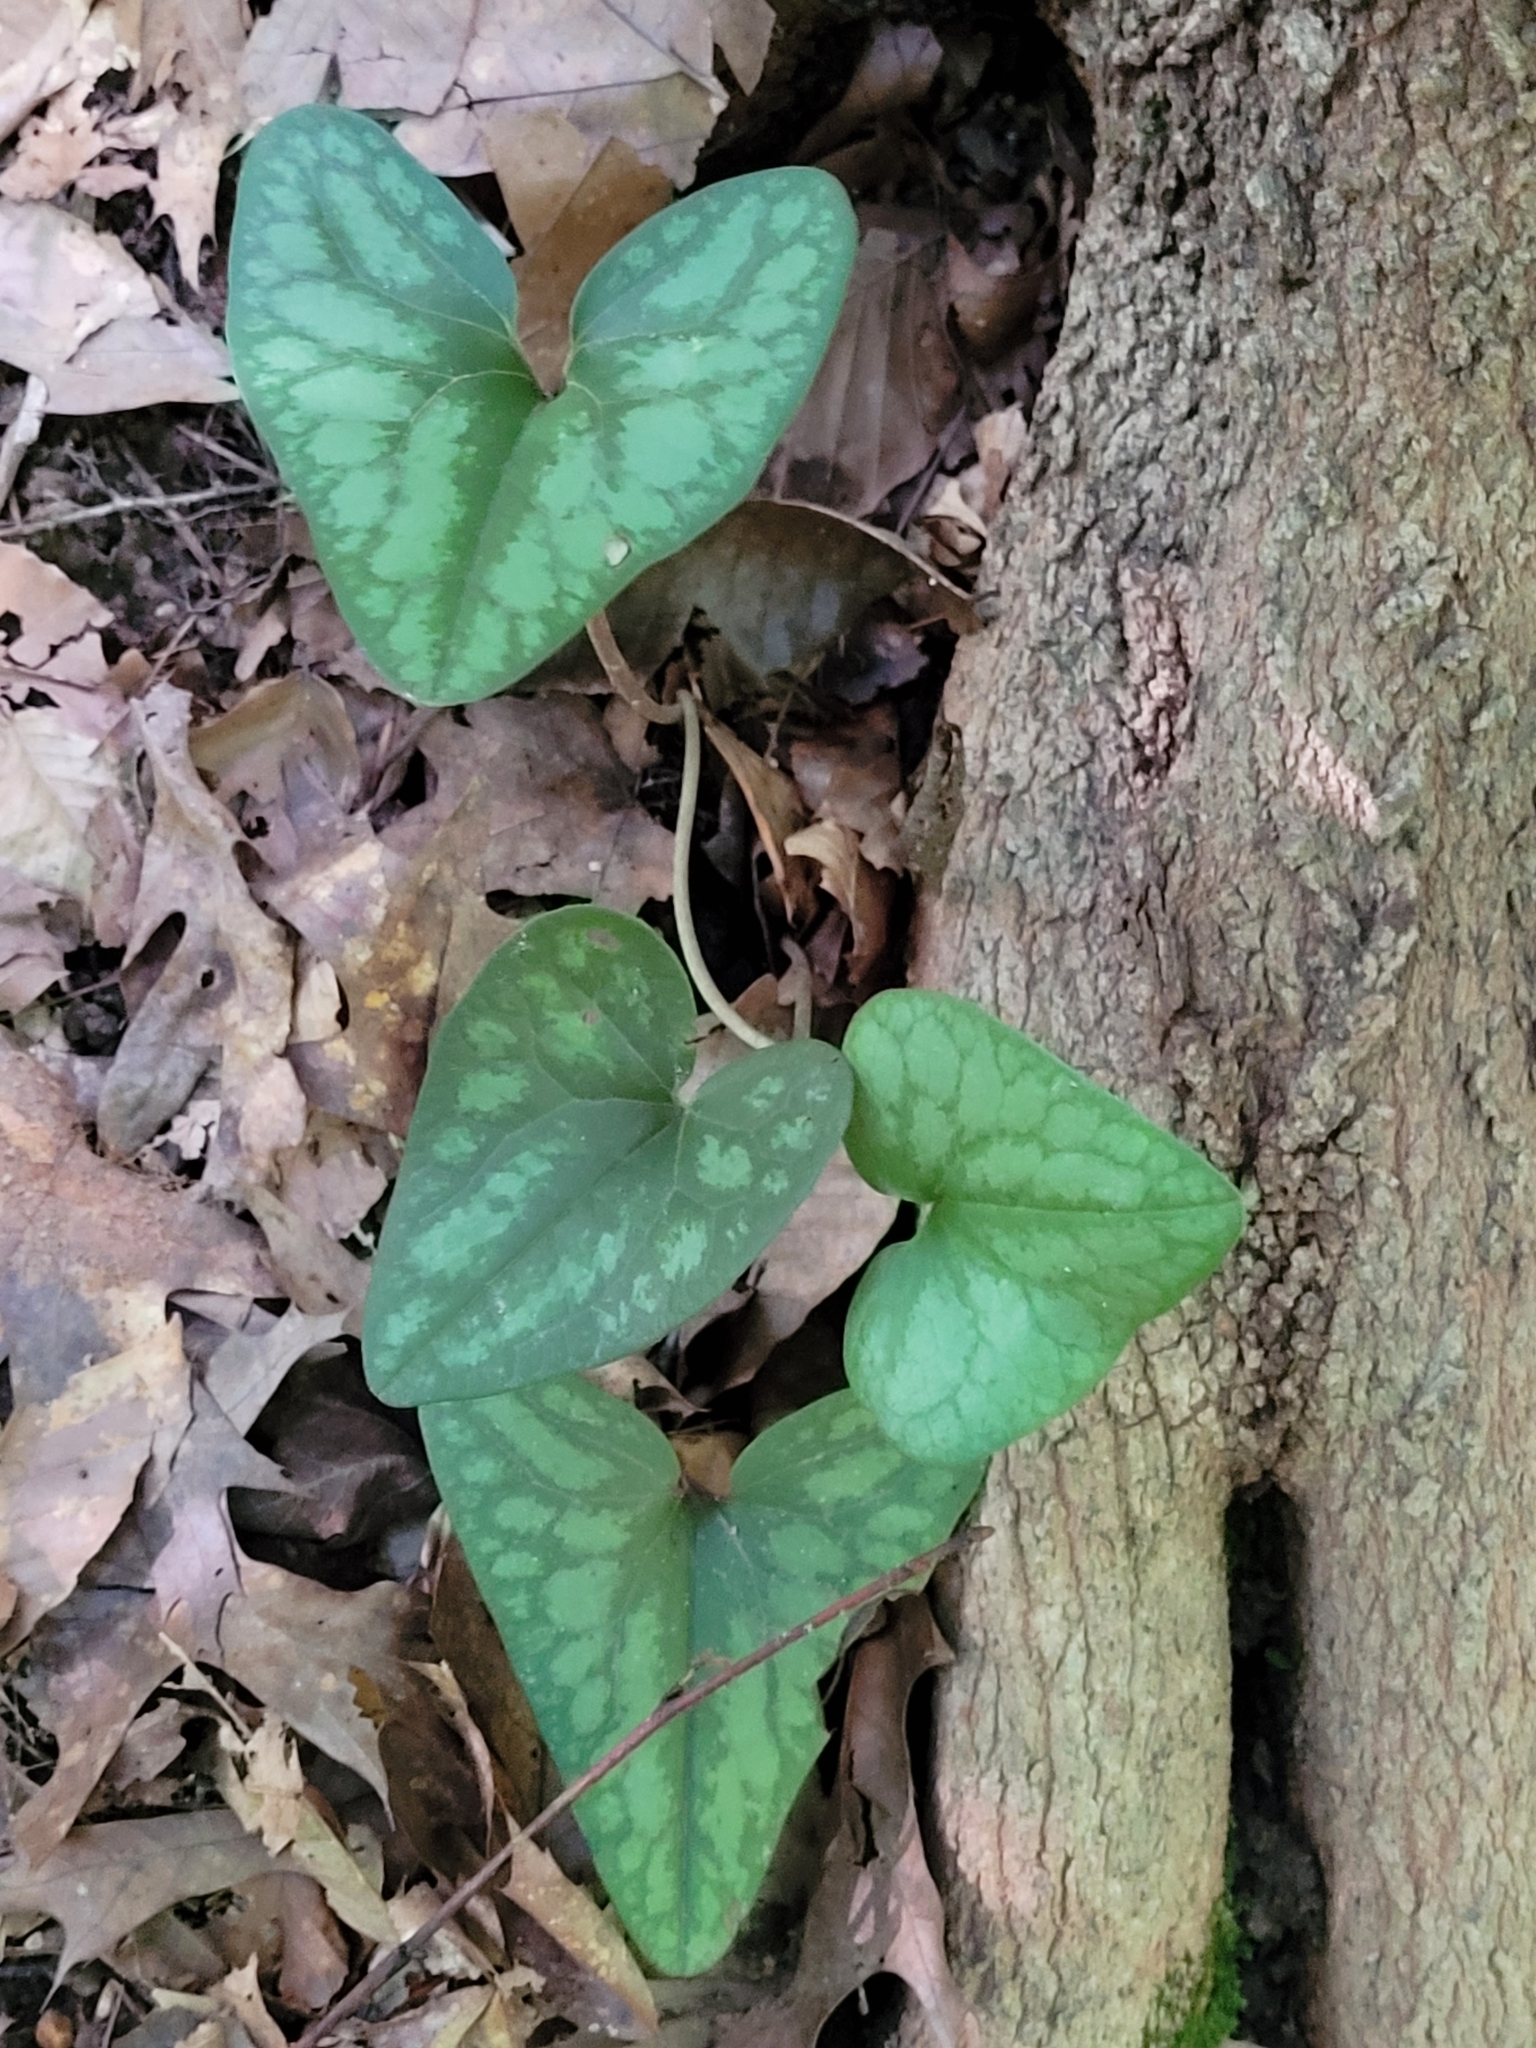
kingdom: Plantae
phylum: Tracheophyta
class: Magnoliopsida
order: Piperales
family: Aristolochiaceae
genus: Hexastylis
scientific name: Hexastylis arifolia
